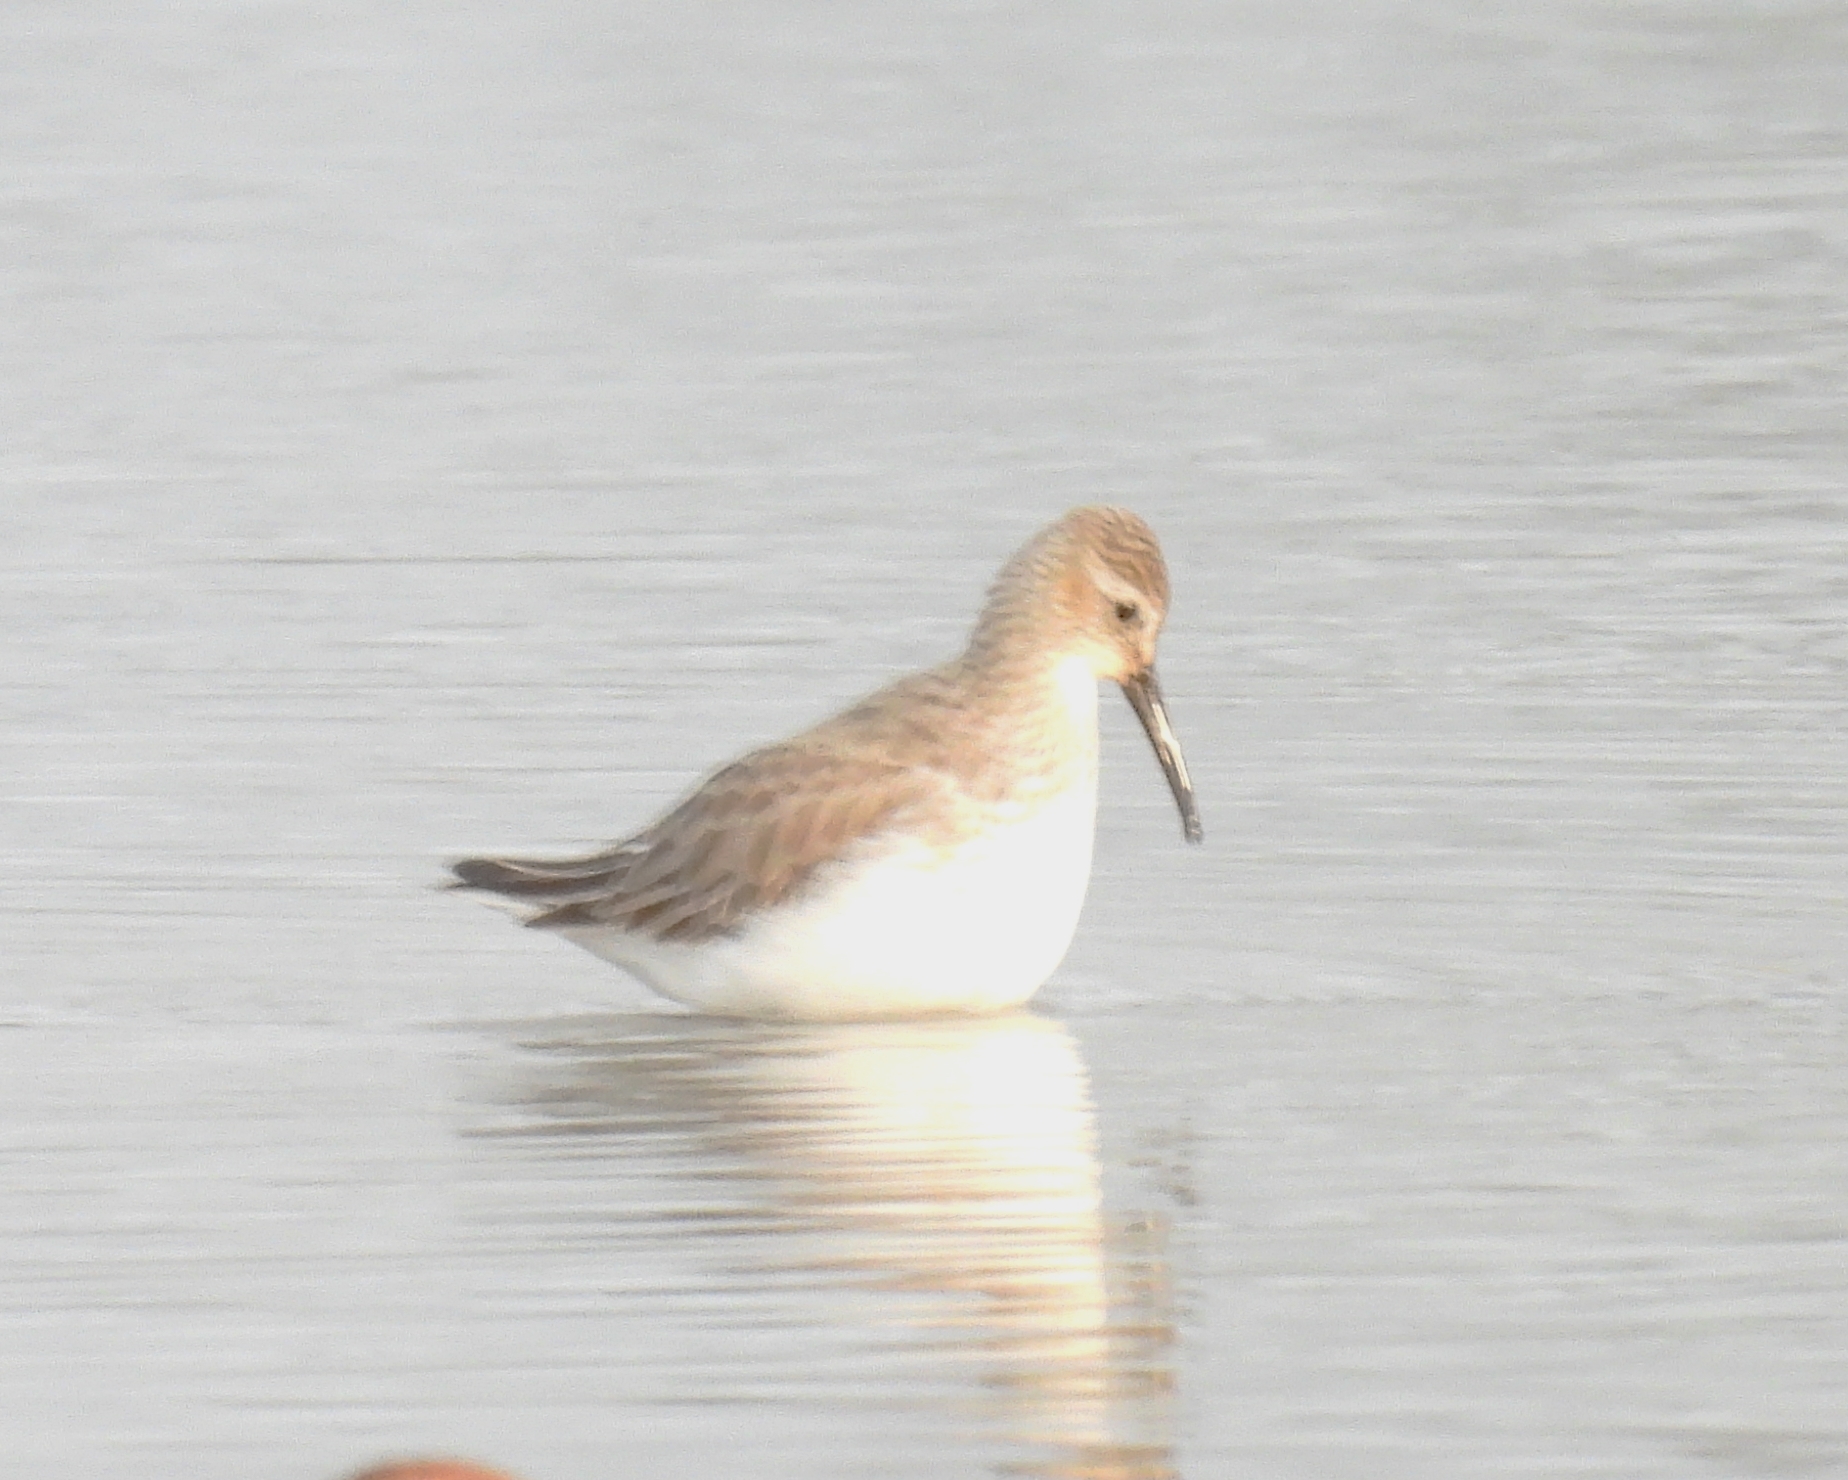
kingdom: Animalia
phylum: Chordata
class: Aves
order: Charadriiformes
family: Scolopacidae
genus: Calidris
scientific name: Calidris alpina
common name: Dunlin
